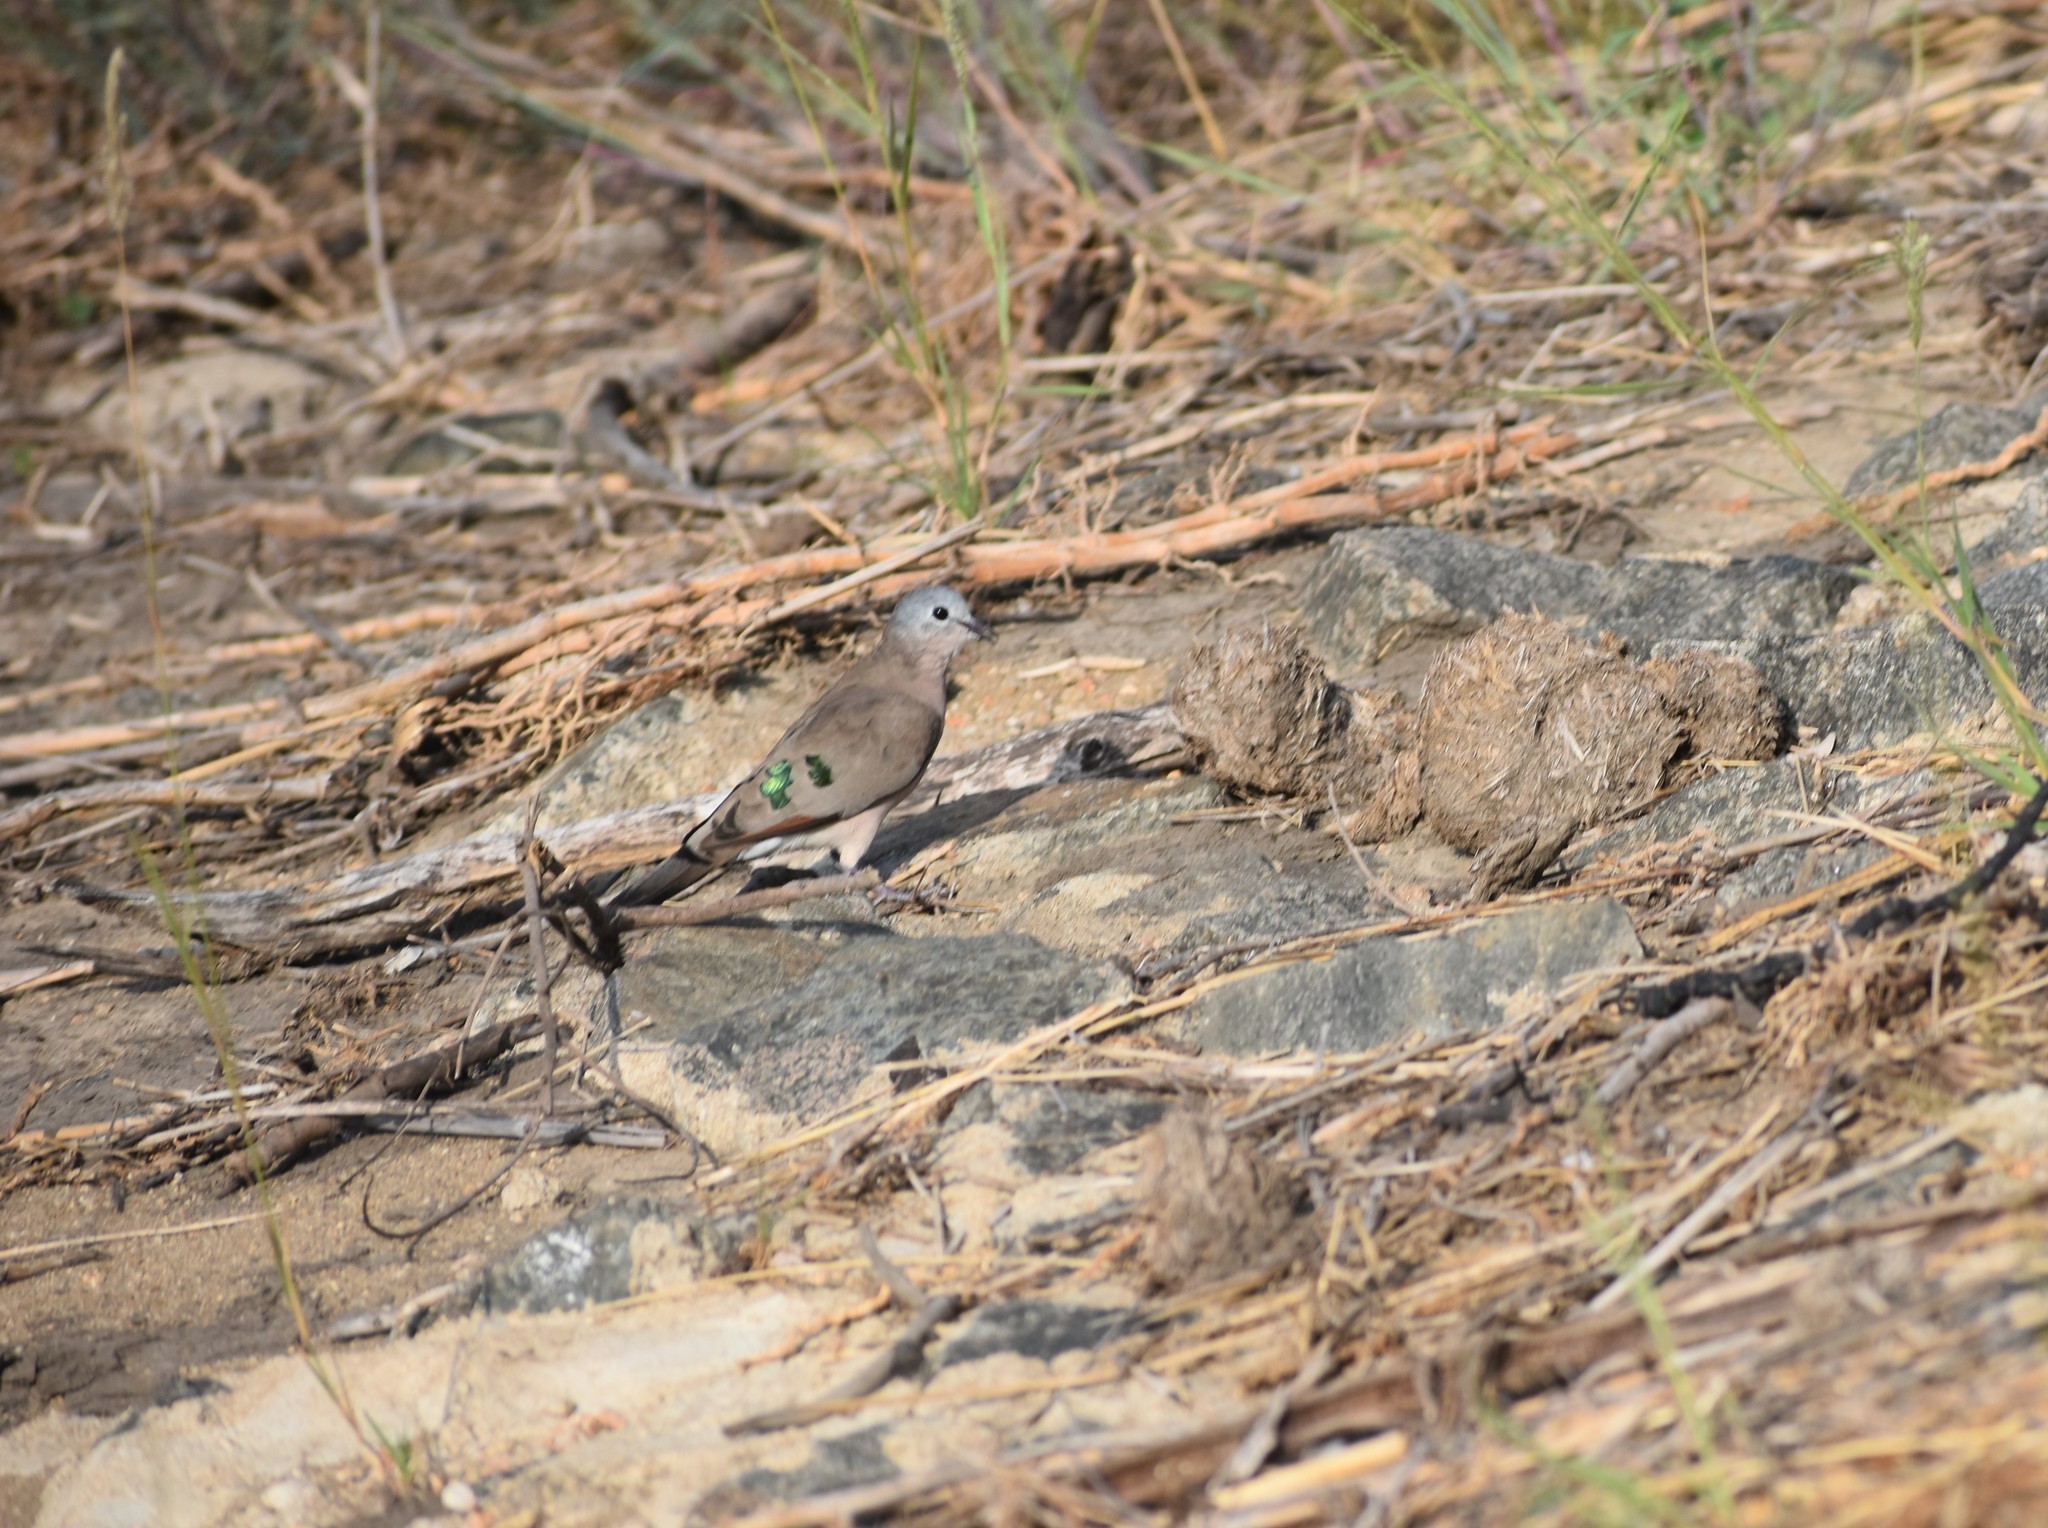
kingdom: Animalia
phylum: Chordata
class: Aves
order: Columbiformes
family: Columbidae
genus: Turtur
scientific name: Turtur chalcospilos
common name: Emerald-spotted wood dove
